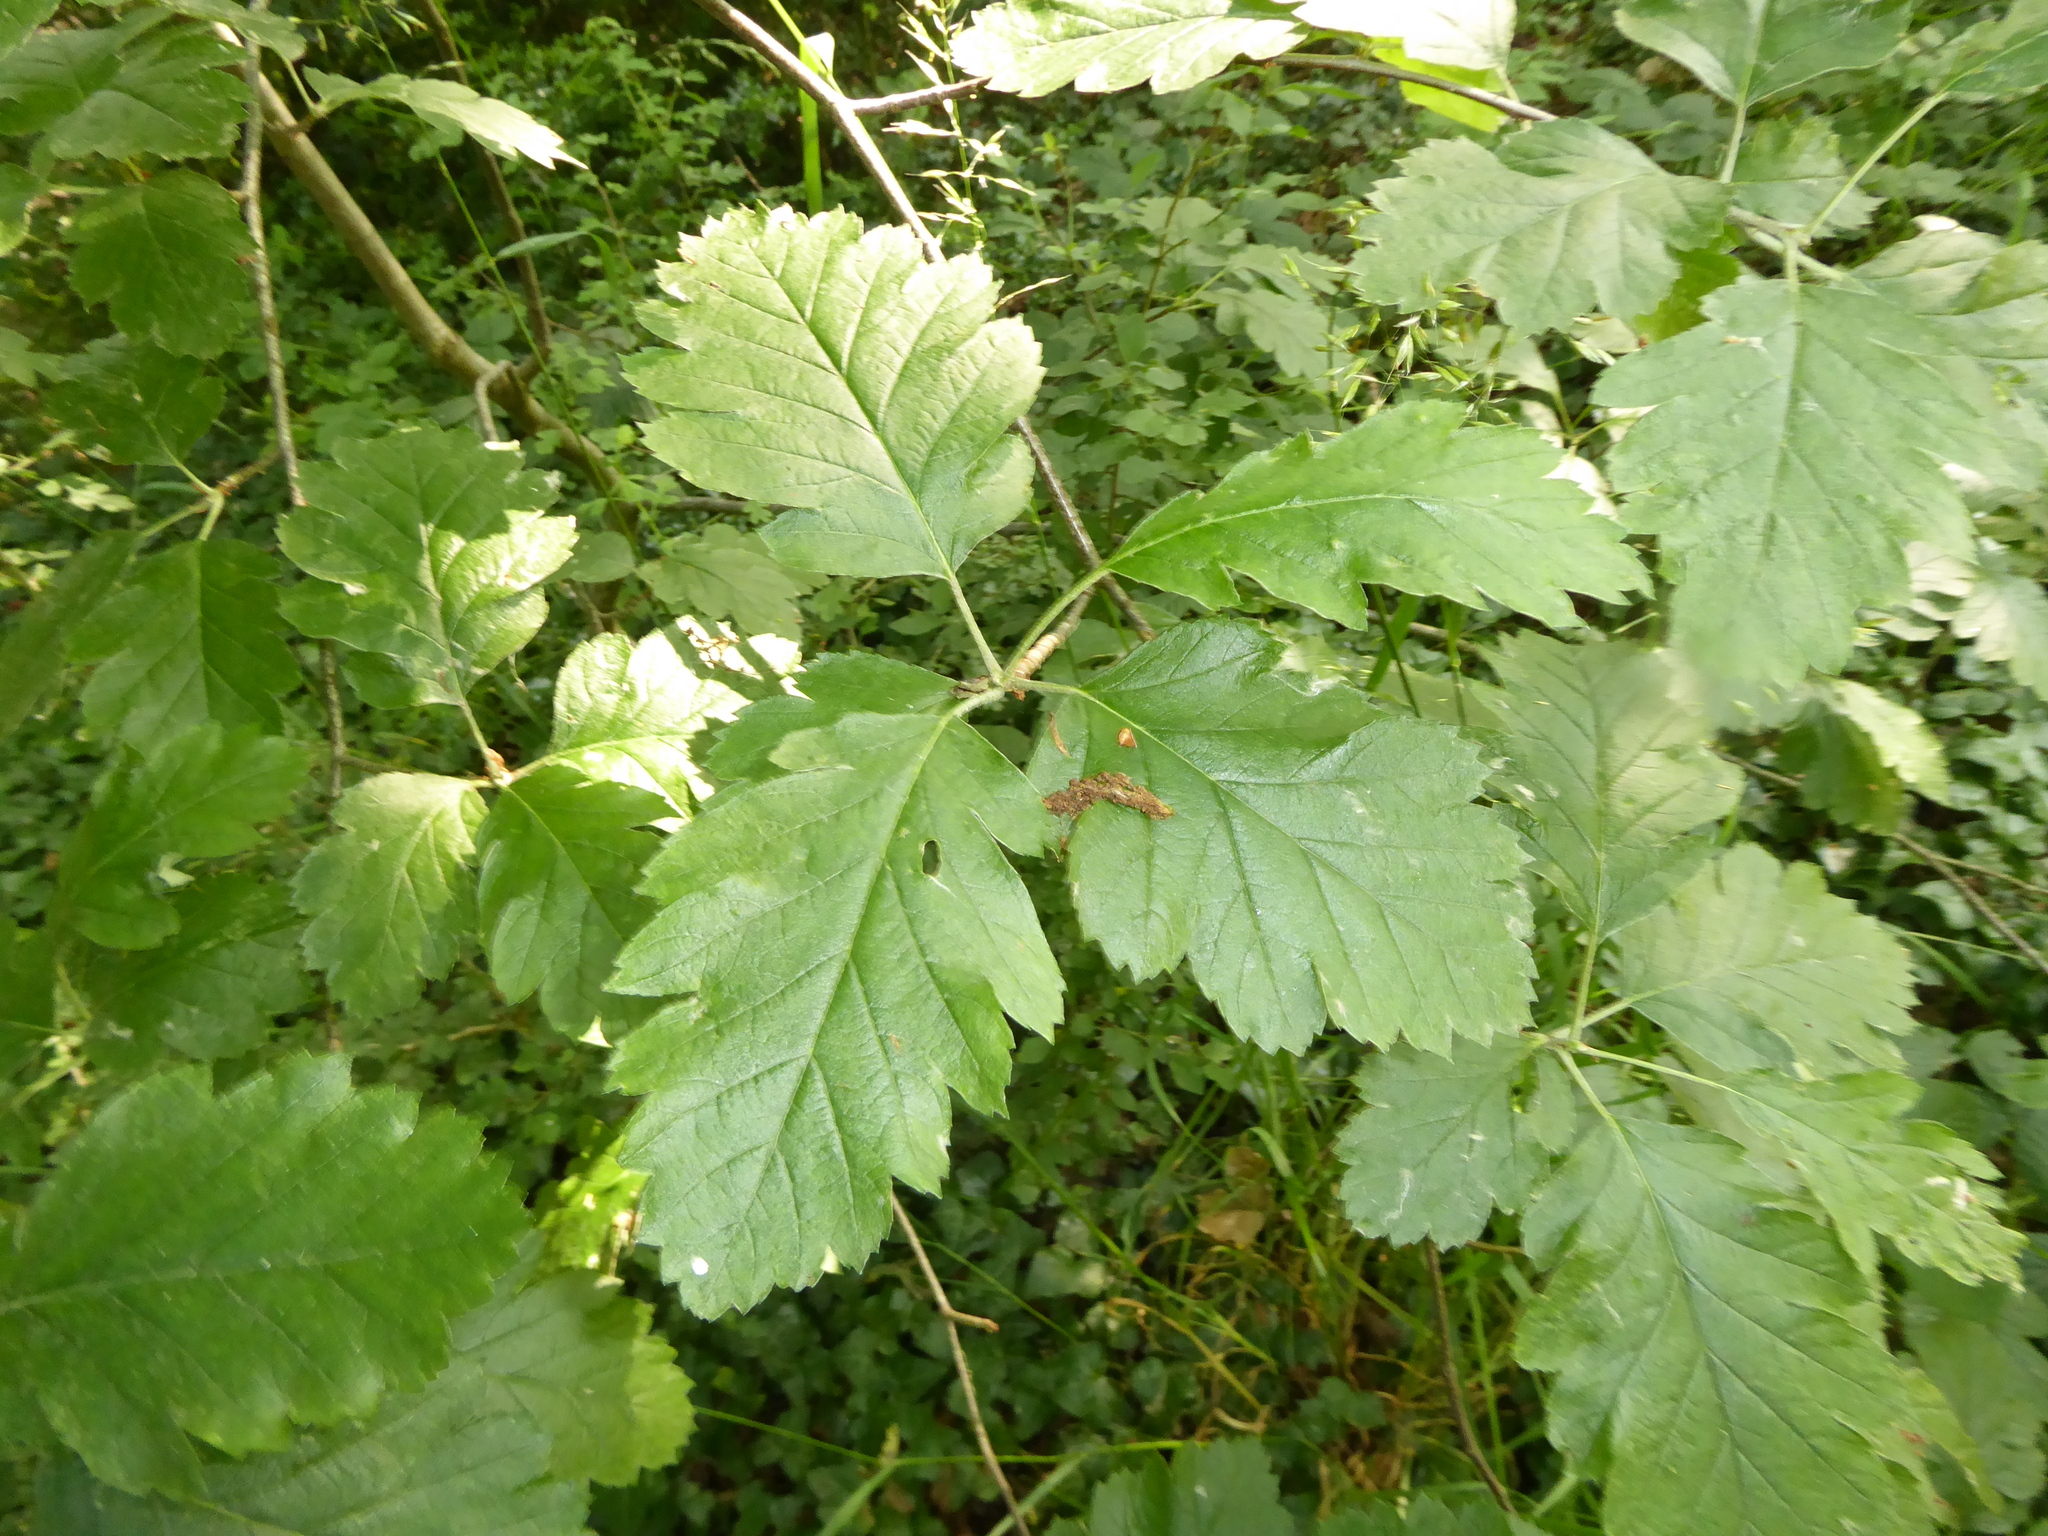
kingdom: Plantae
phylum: Tracheophyta
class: Magnoliopsida
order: Rosales
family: Rosaceae
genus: Scandosorbus
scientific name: Scandosorbus intermedia
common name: Swedish whitebeam
